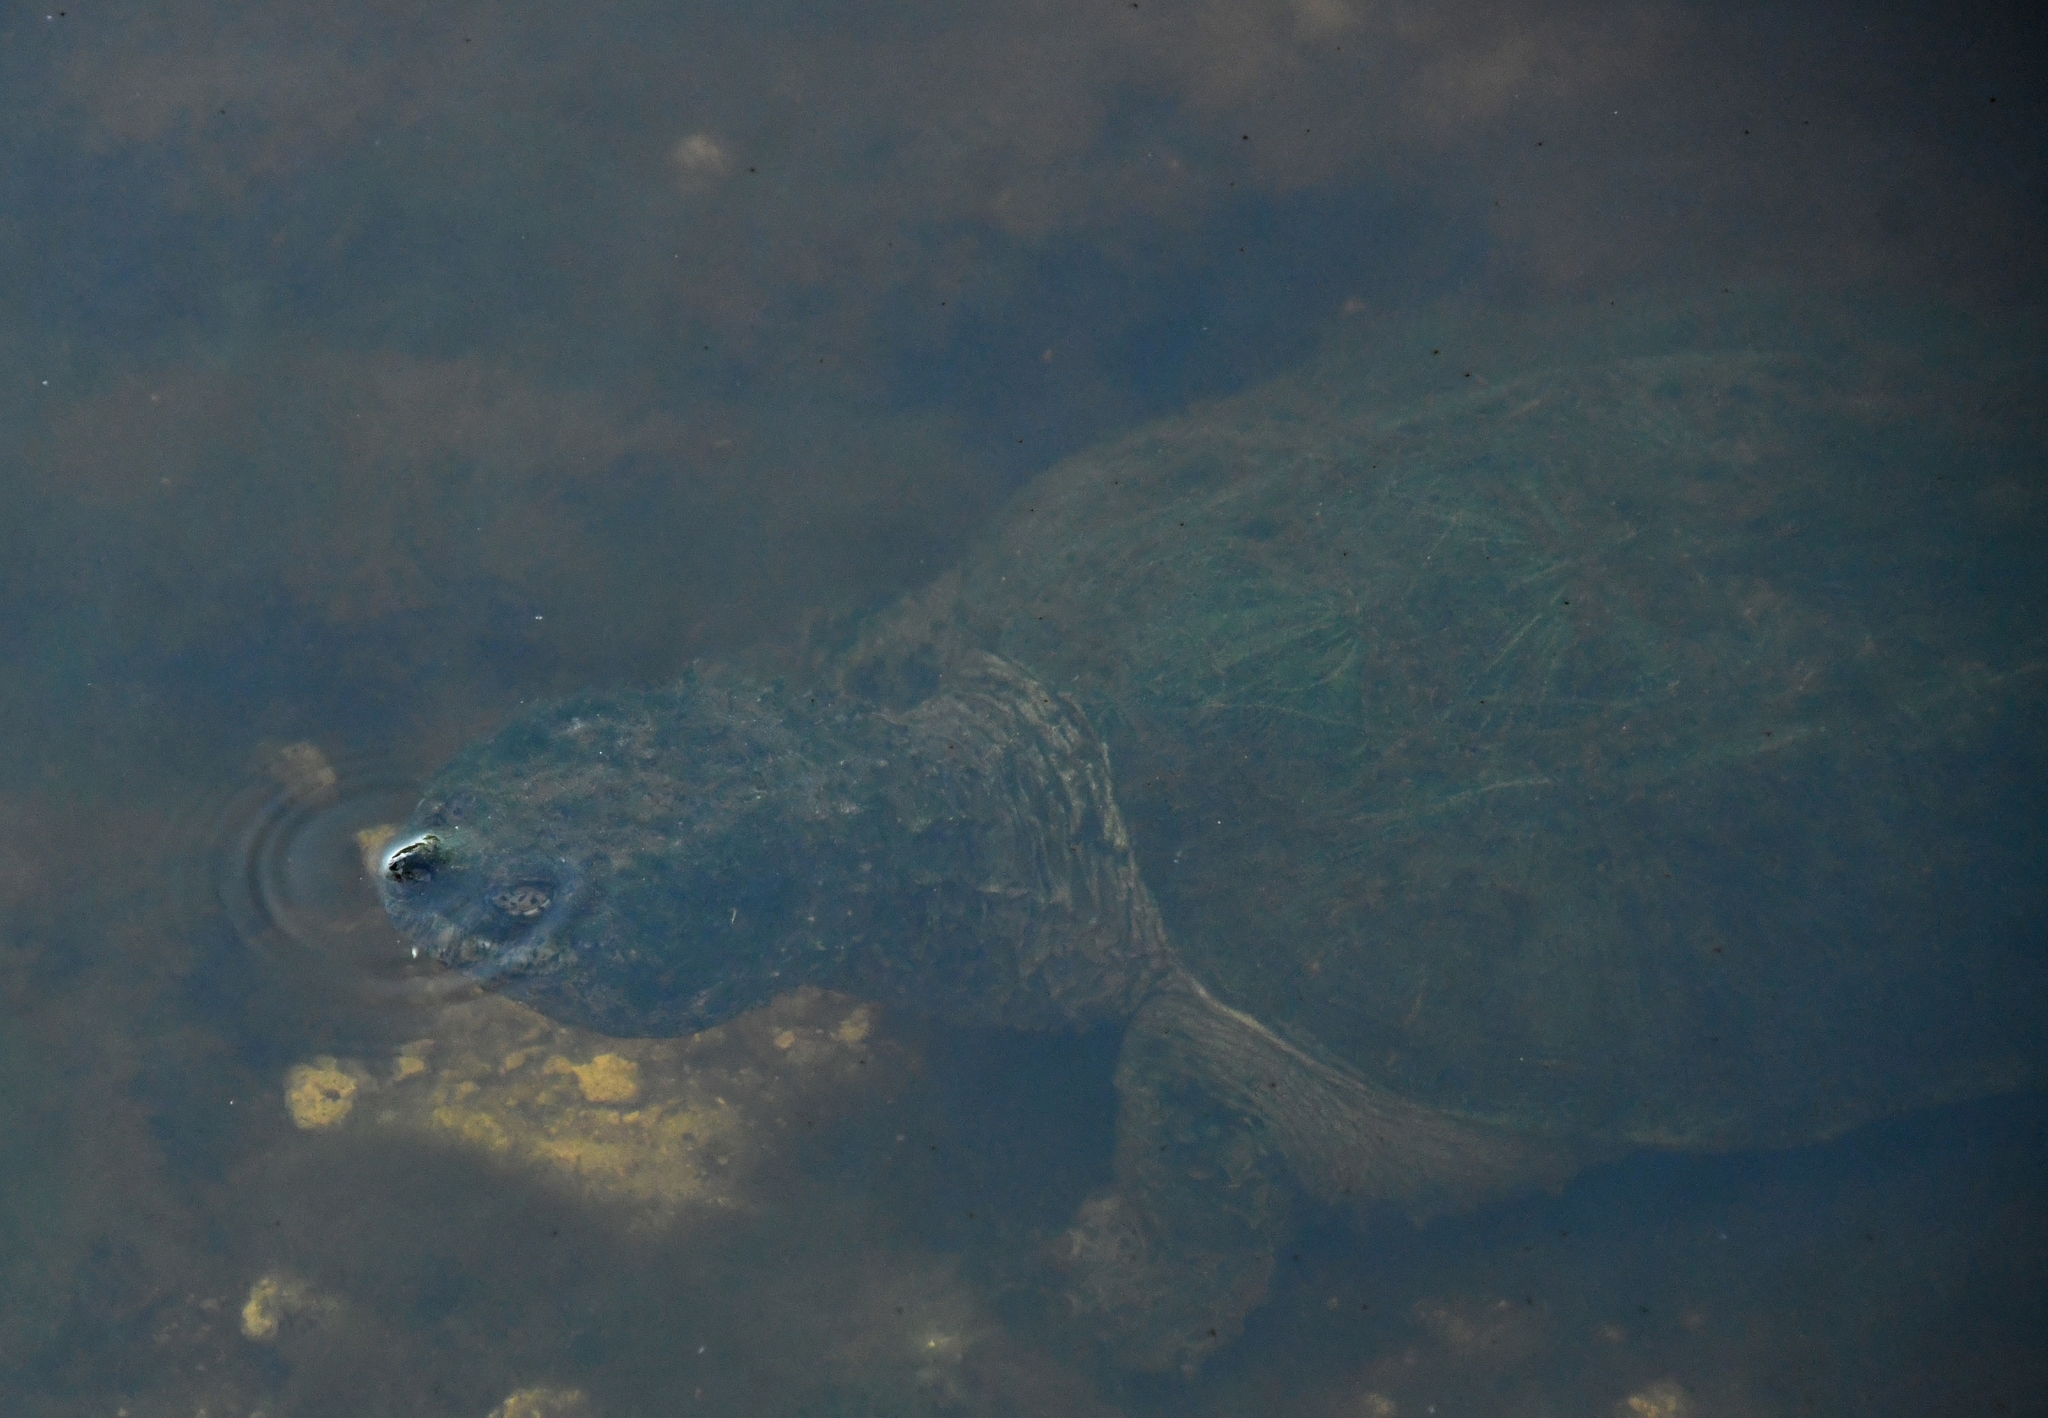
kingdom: Animalia
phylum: Chordata
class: Testudines
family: Chelydridae
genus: Chelydra
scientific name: Chelydra serpentina
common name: Common snapping turtle
